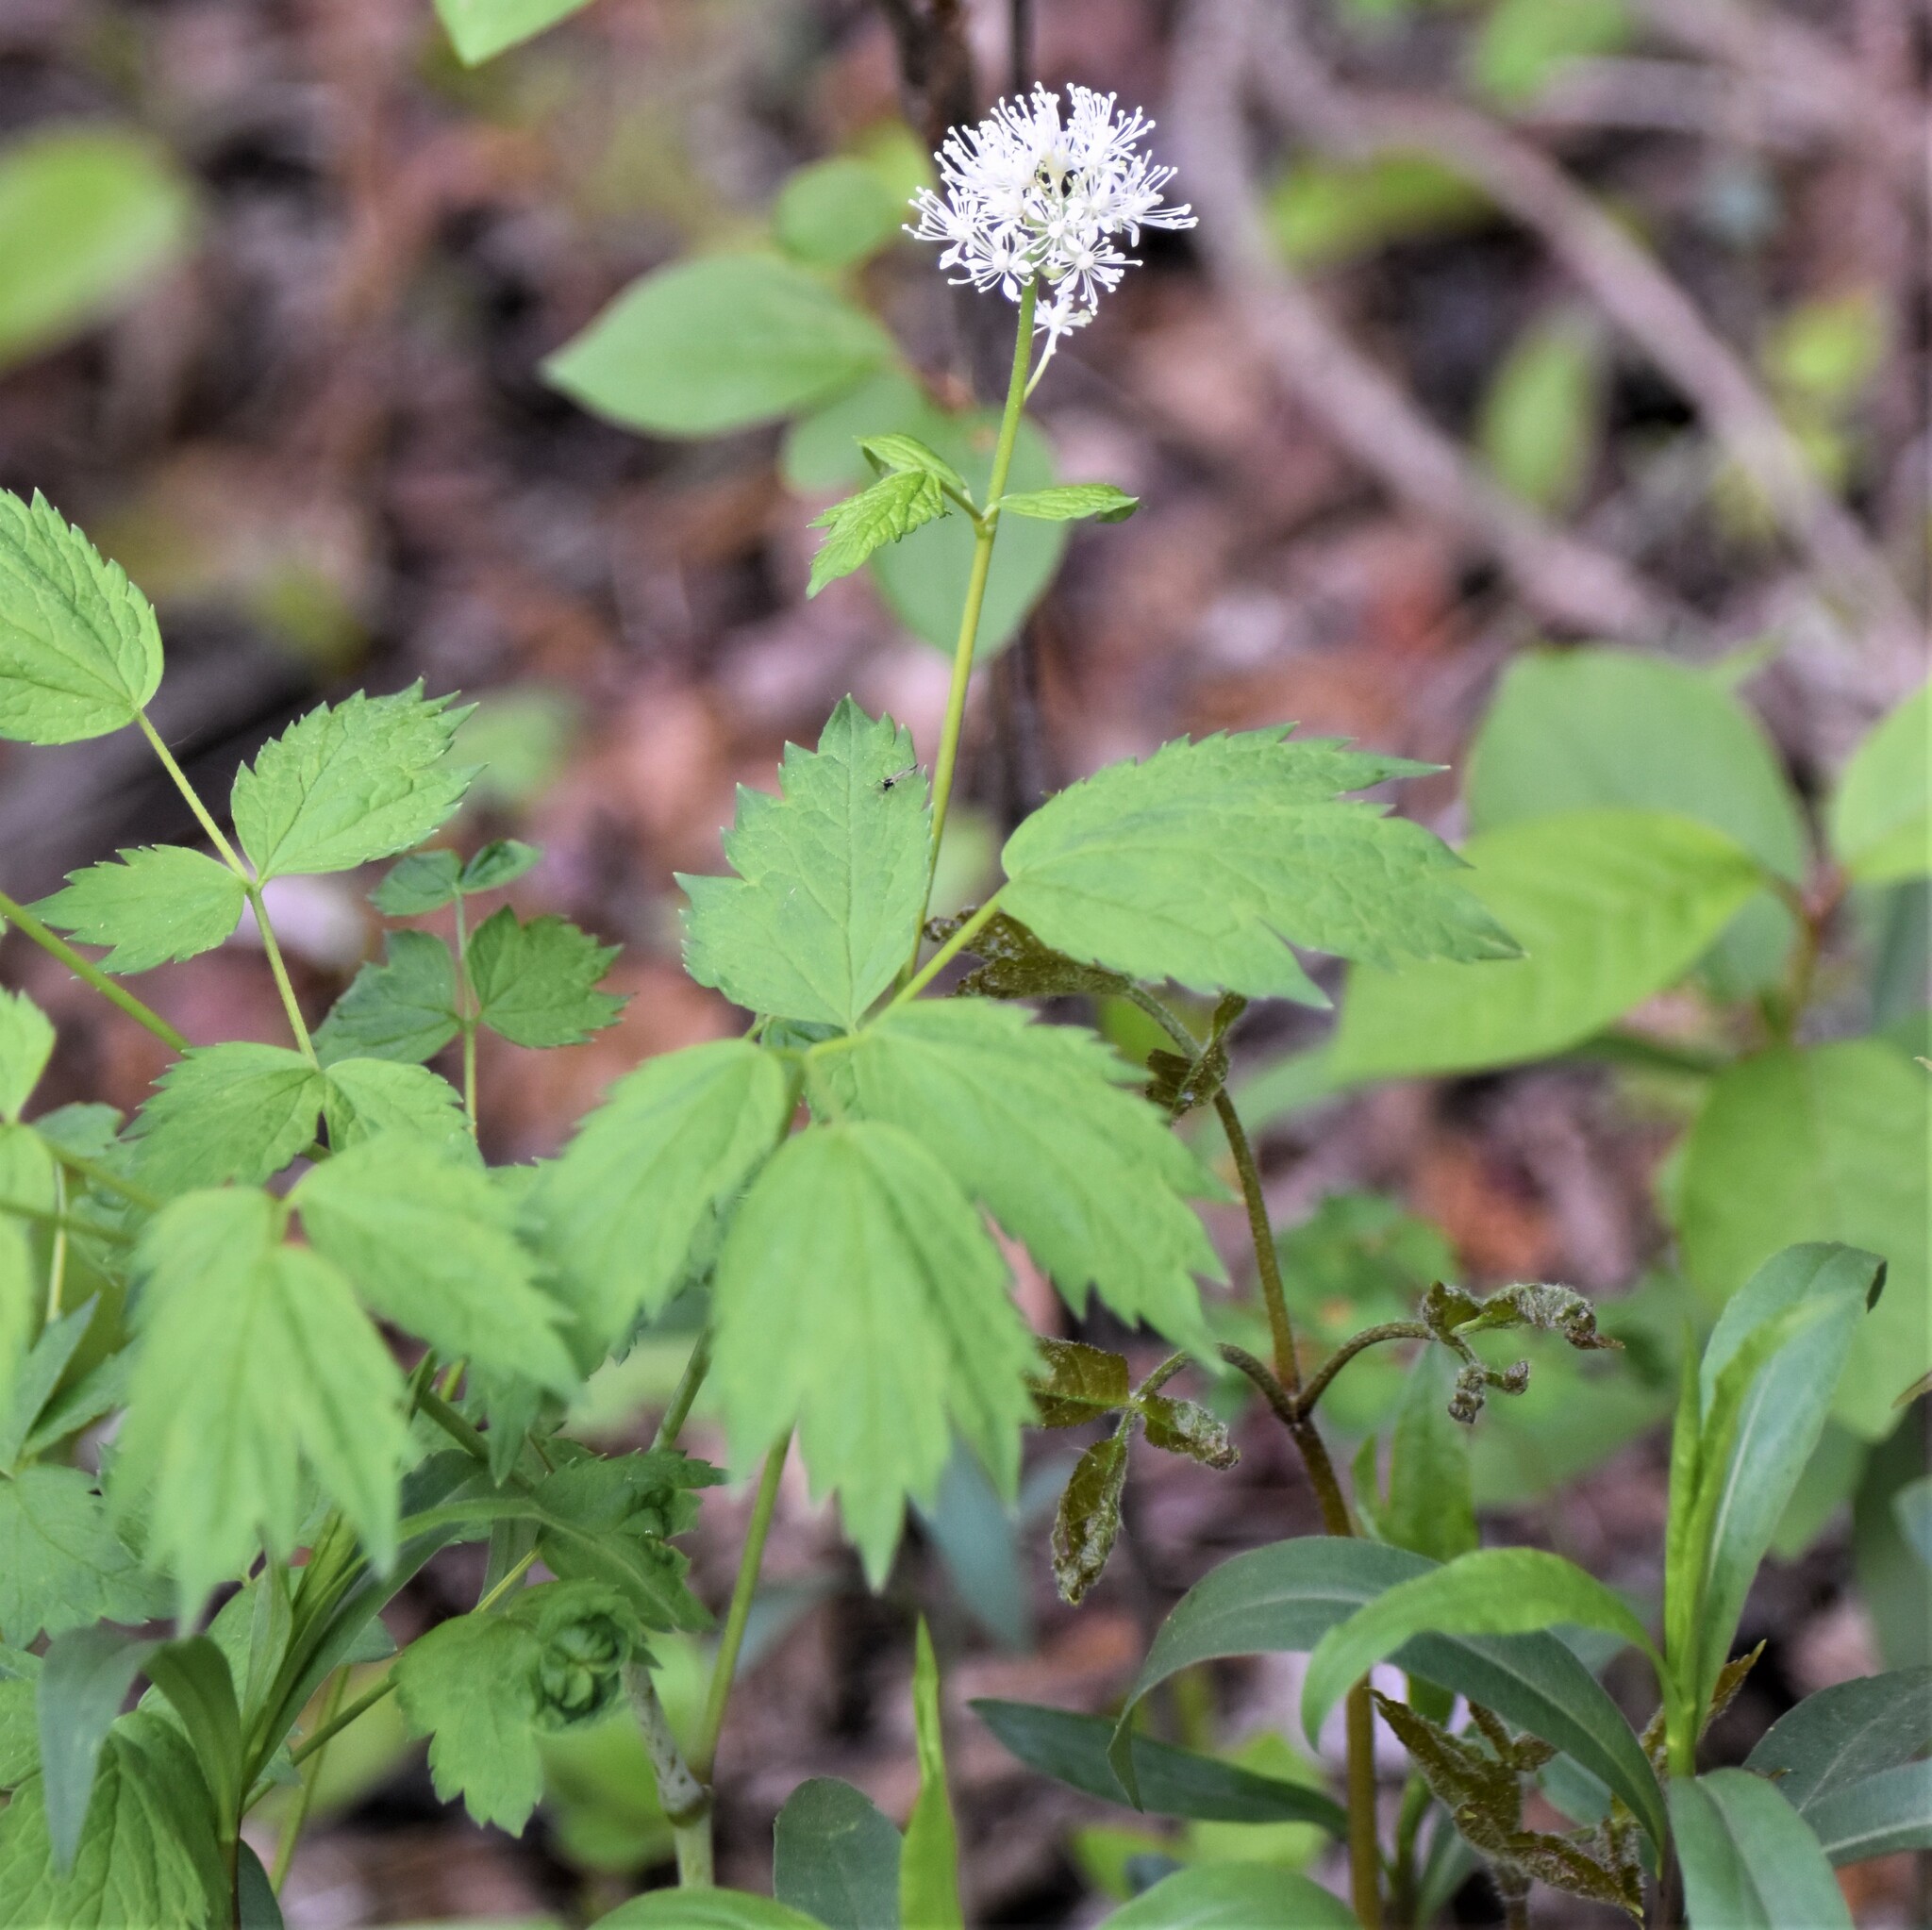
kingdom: Plantae
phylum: Tracheophyta
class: Magnoliopsida
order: Ranunculales
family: Ranunculaceae
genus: Actaea
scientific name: Actaea rubra
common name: Red baneberry
